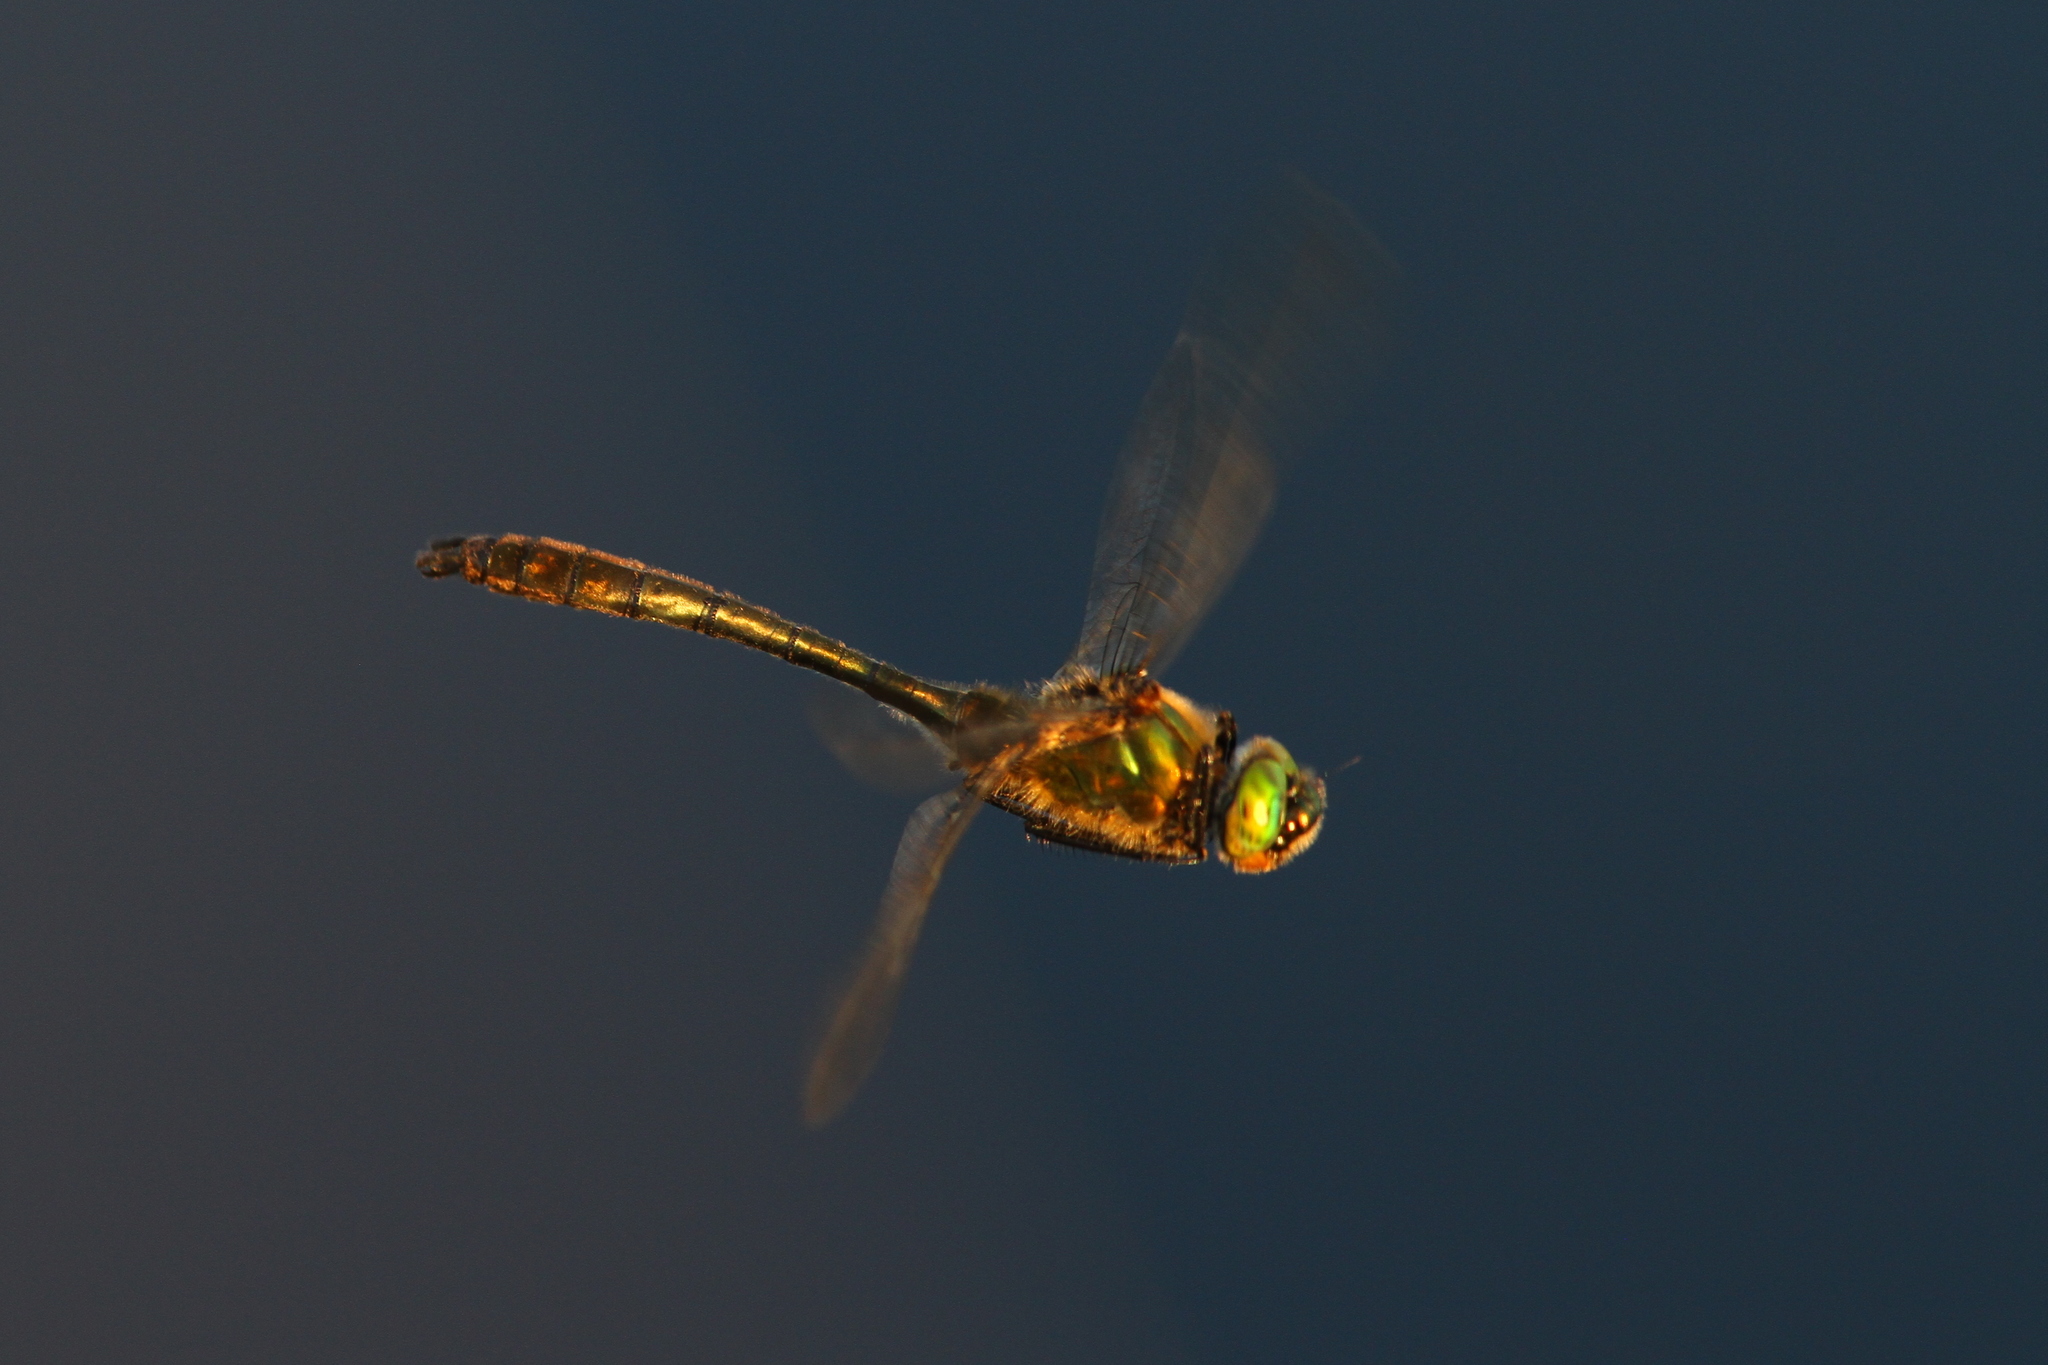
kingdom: Animalia
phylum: Arthropoda
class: Insecta
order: Odonata
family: Corduliidae
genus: Cordulia
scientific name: Cordulia aenea
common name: Downy emerald
